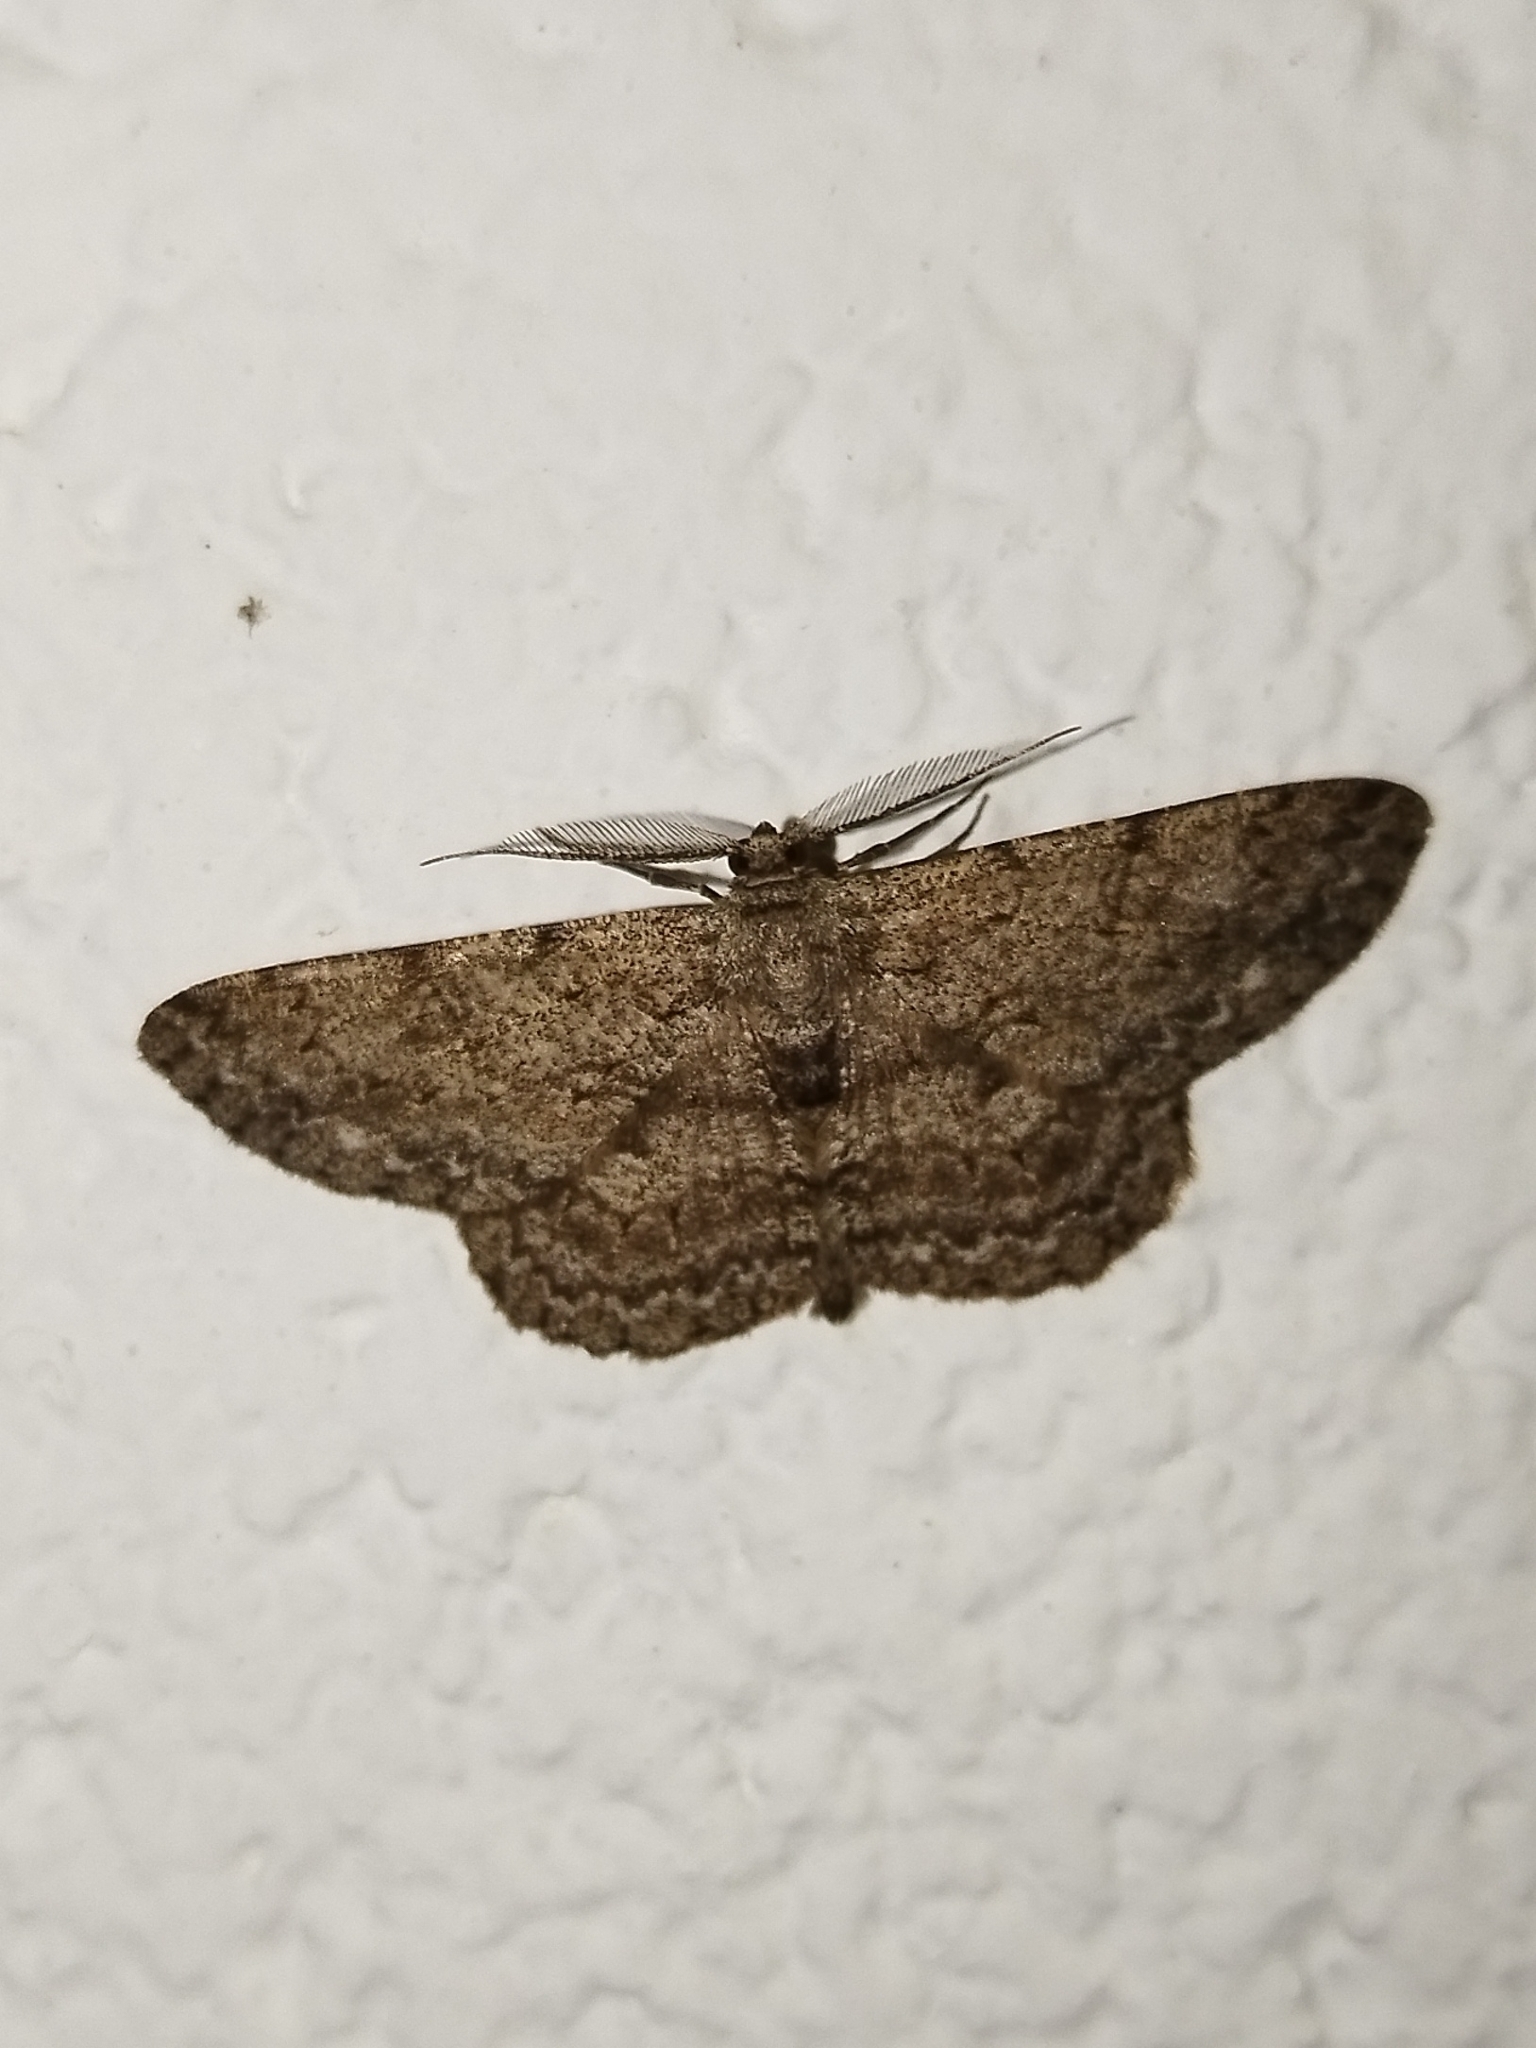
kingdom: Animalia
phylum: Arthropoda
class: Insecta
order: Lepidoptera
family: Geometridae
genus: Hypomecis
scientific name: Hypomecis punctinalis
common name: Pale oak beauty
